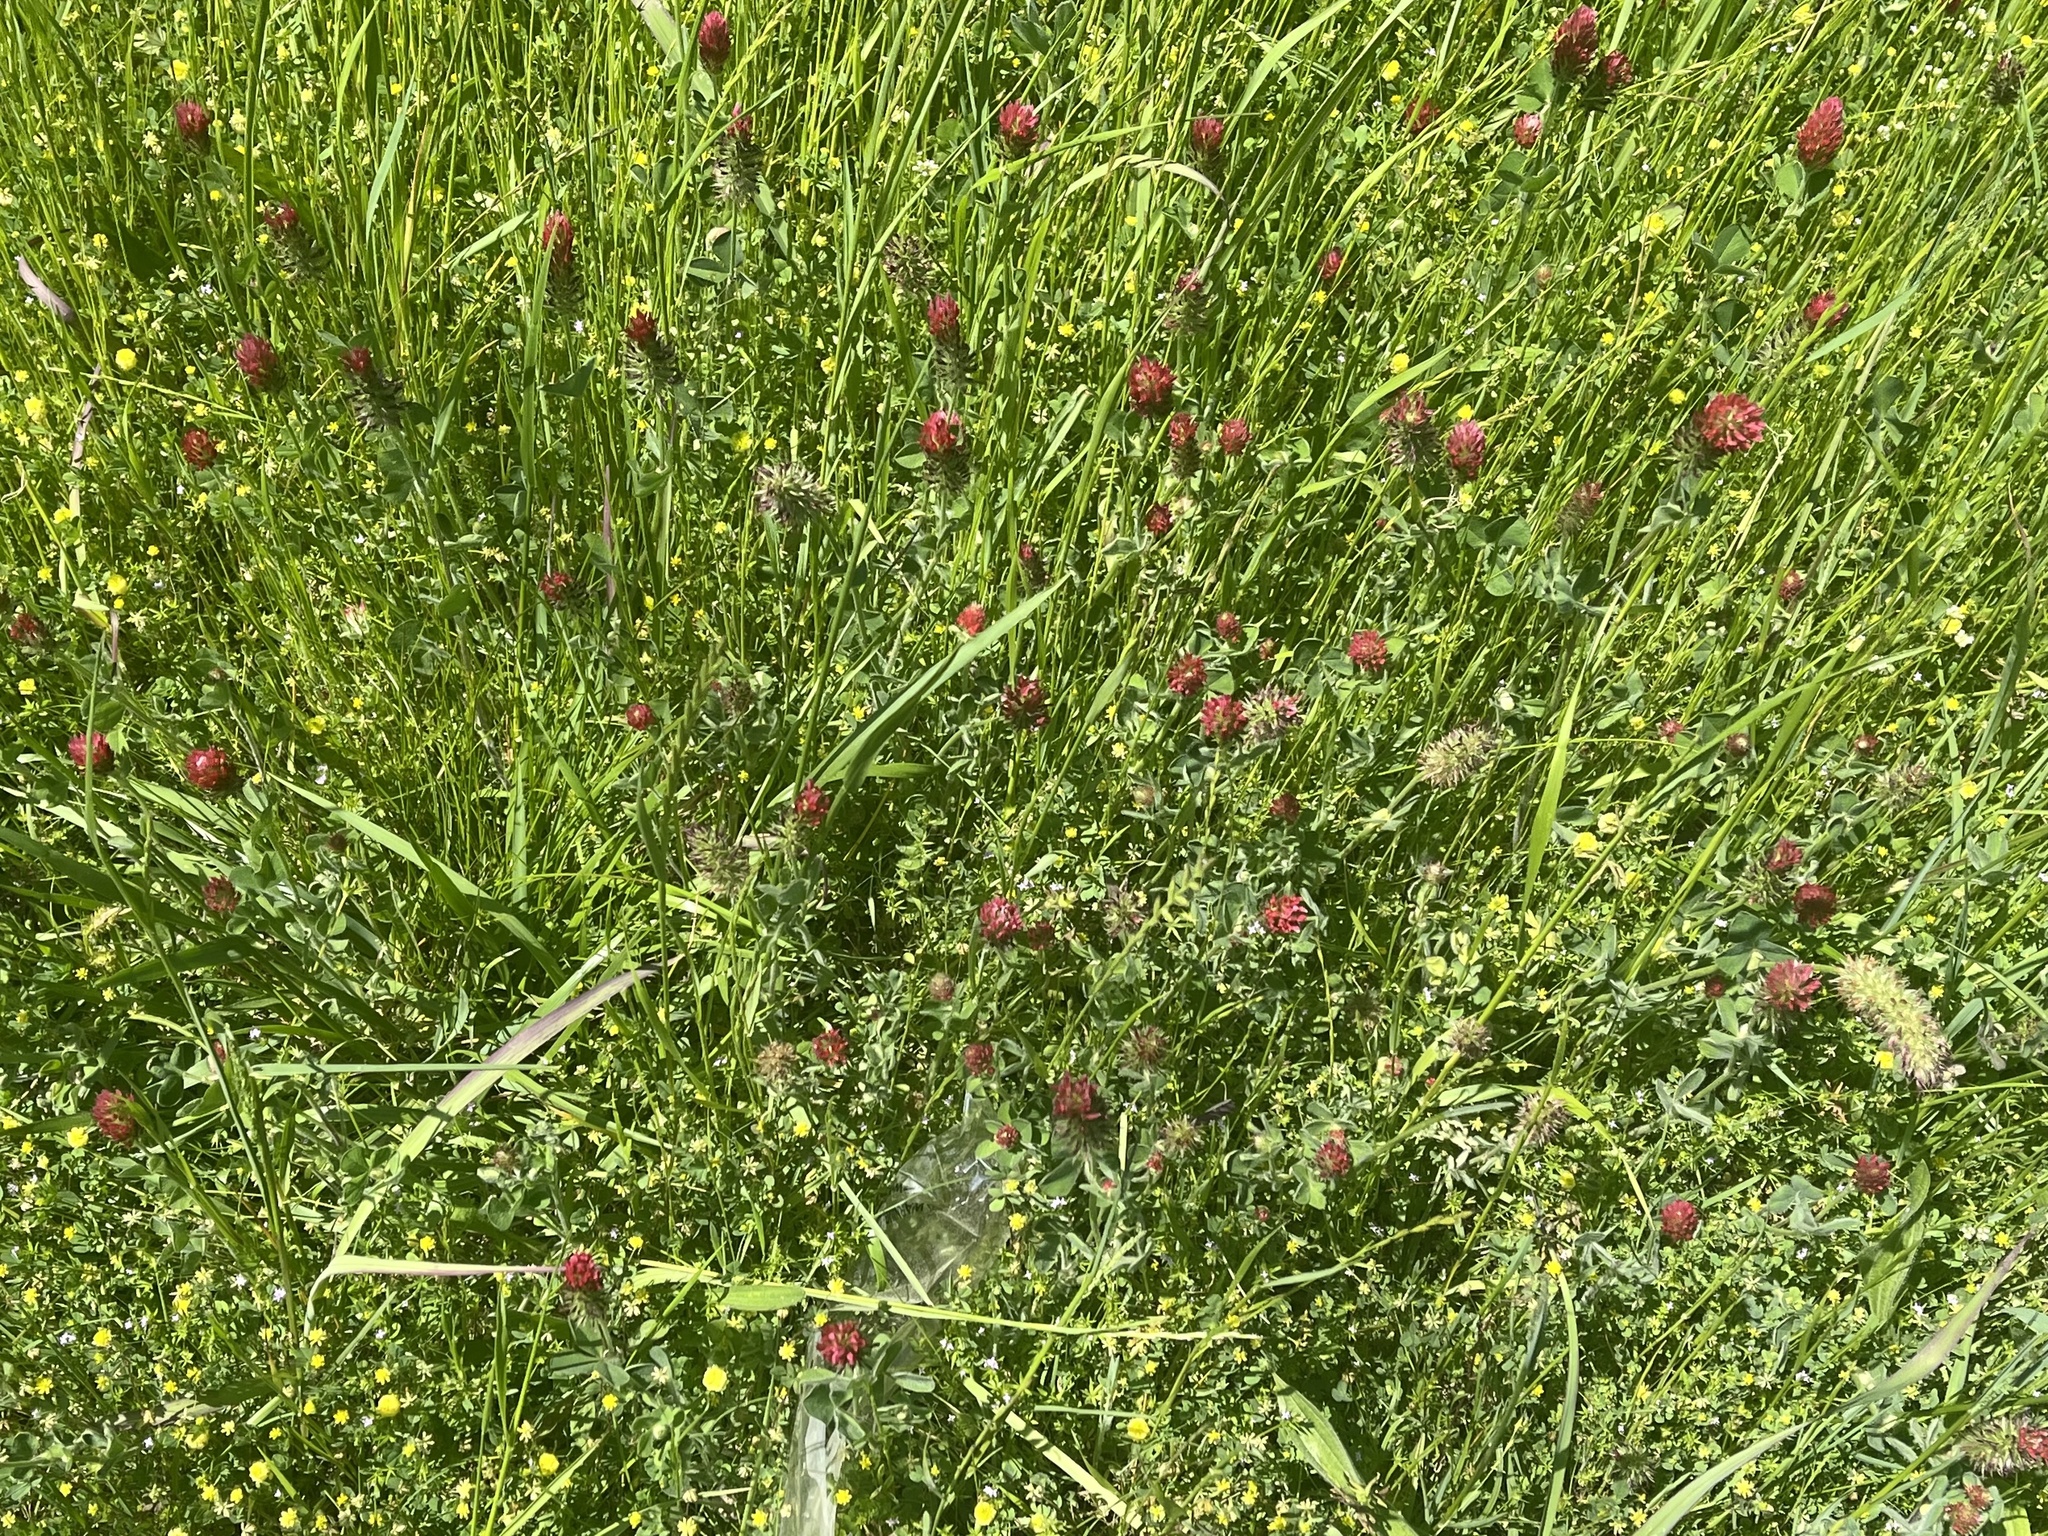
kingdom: Plantae
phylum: Tracheophyta
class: Magnoliopsida
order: Fabales
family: Fabaceae
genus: Trifolium
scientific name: Trifolium incarnatum
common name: Crimson clover
